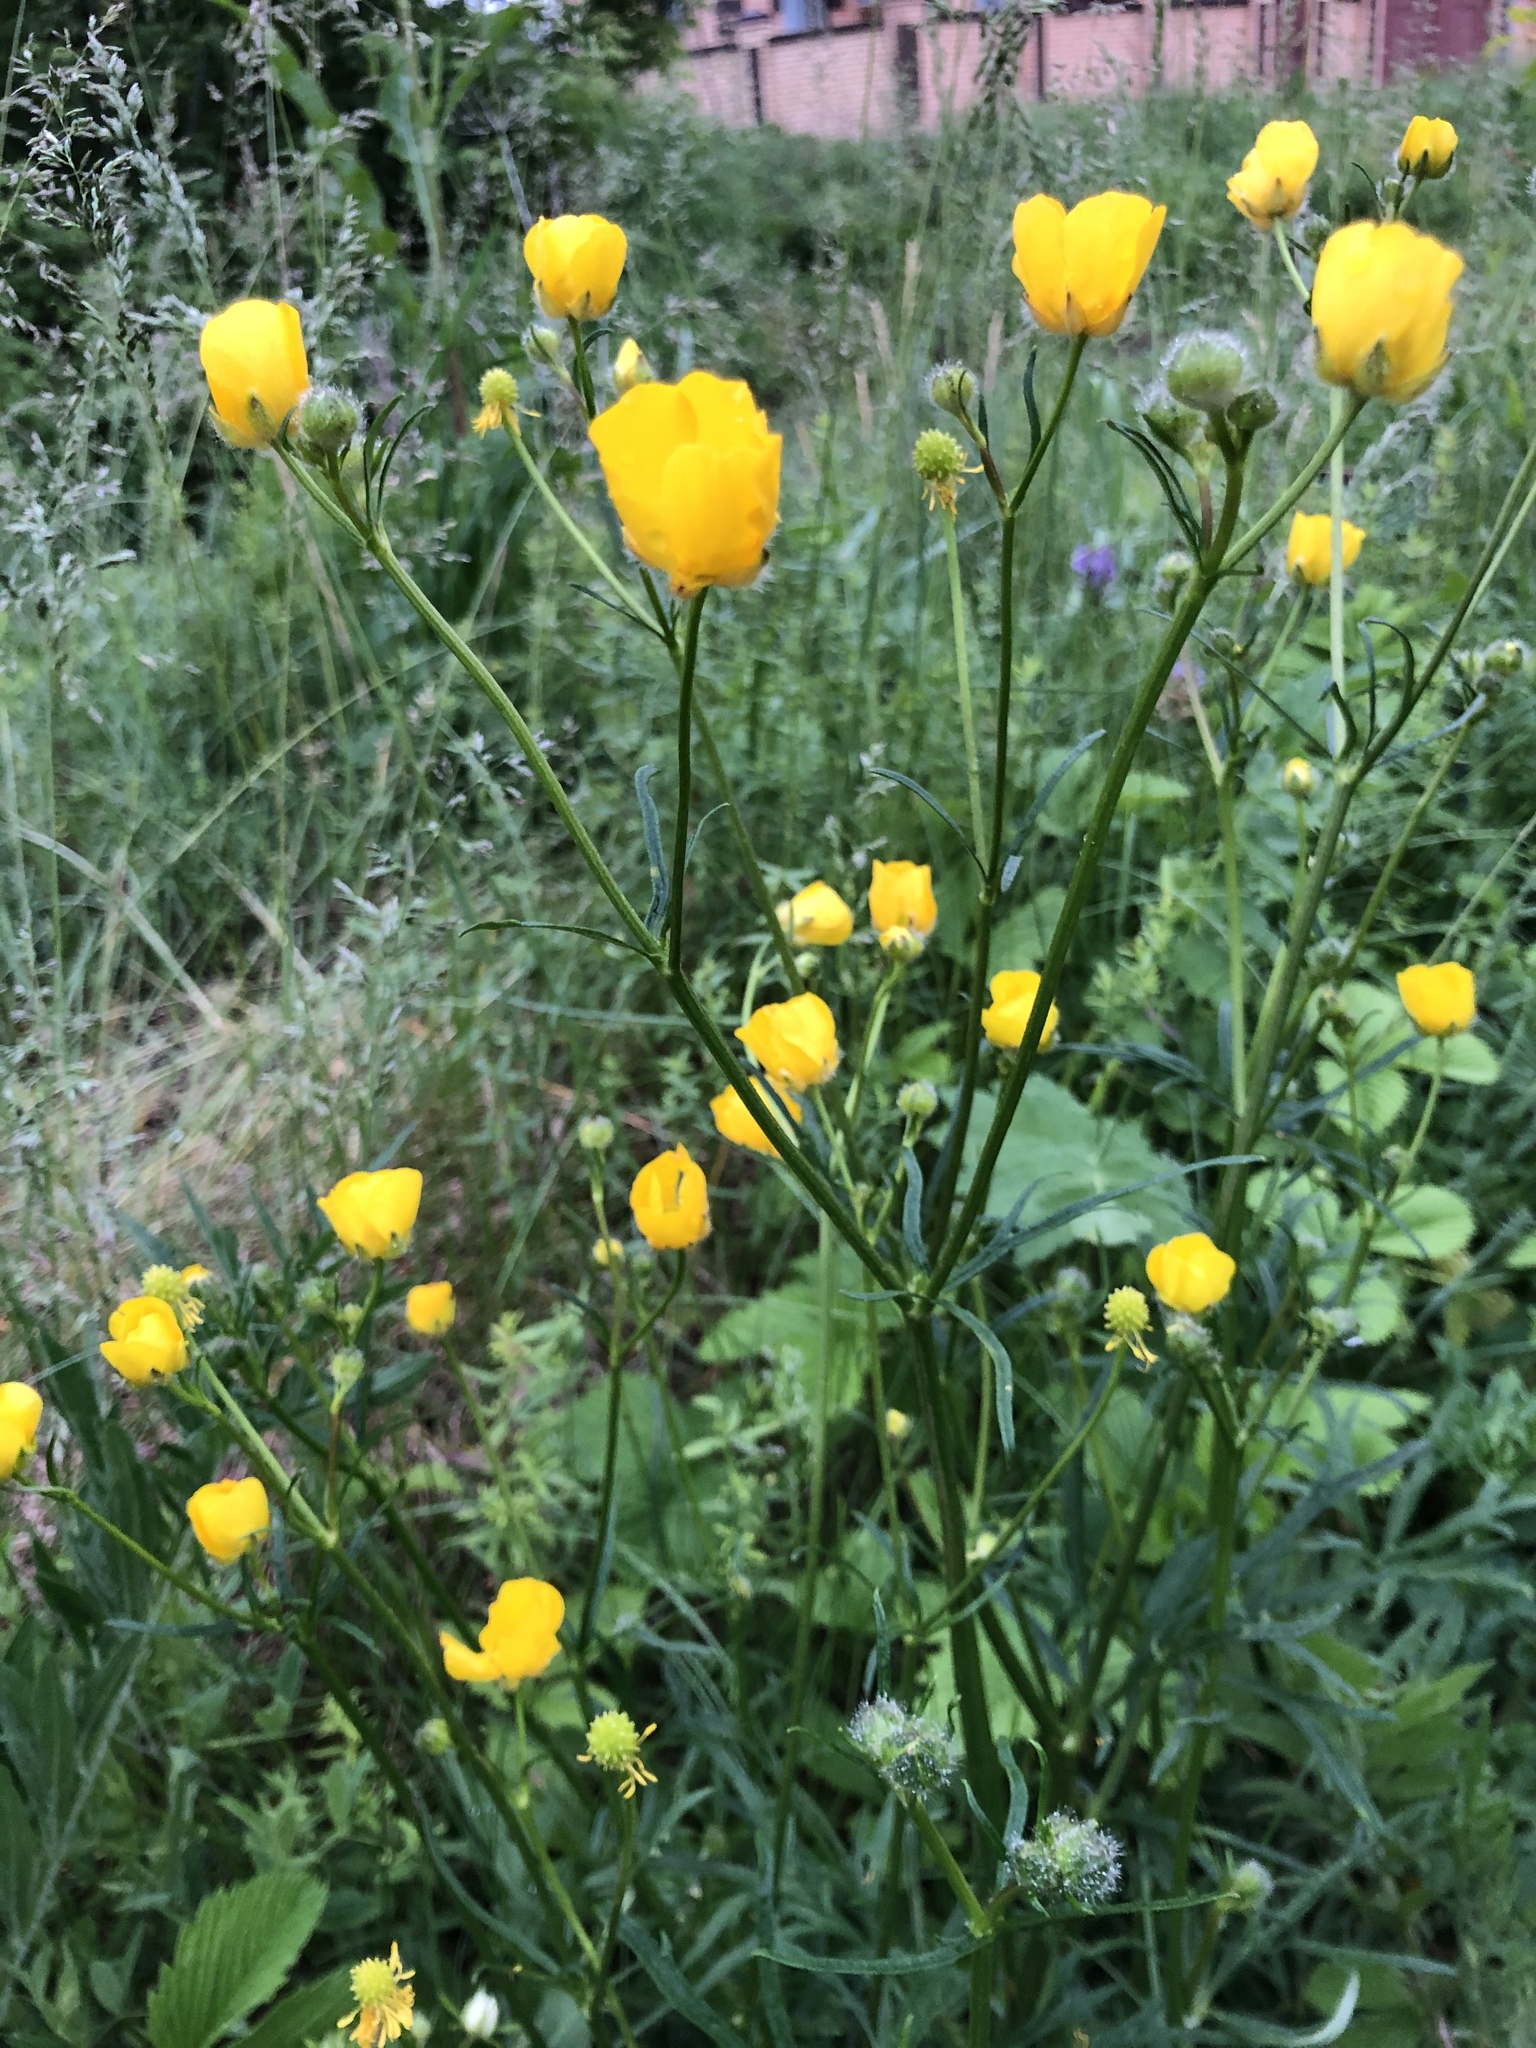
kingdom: Plantae
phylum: Tracheophyta
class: Magnoliopsida
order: Ranunculales
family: Ranunculaceae
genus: Ranunculus
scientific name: Ranunculus polyanthemos
